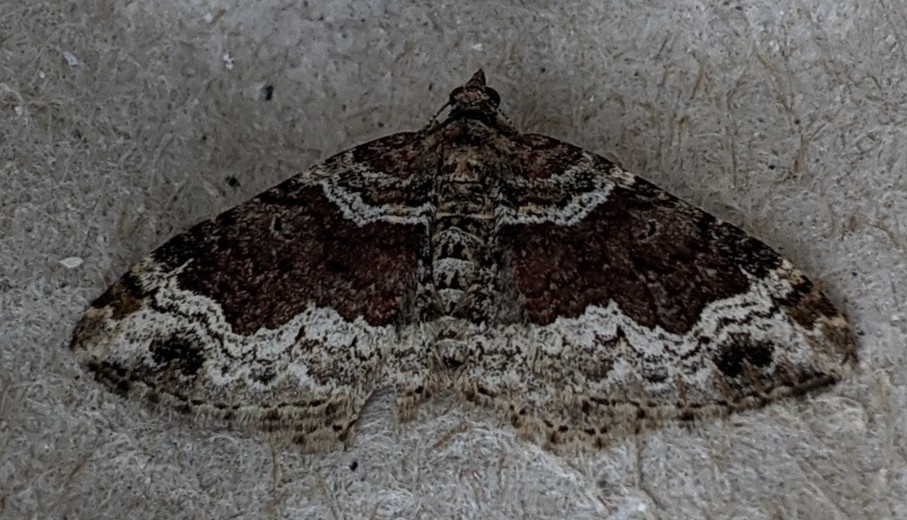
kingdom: Animalia
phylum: Arthropoda
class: Insecta
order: Lepidoptera
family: Geometridae
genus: Xanthorhoe
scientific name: Xanthorhoe ferrugata
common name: Dark-barred twin-spot carpet
